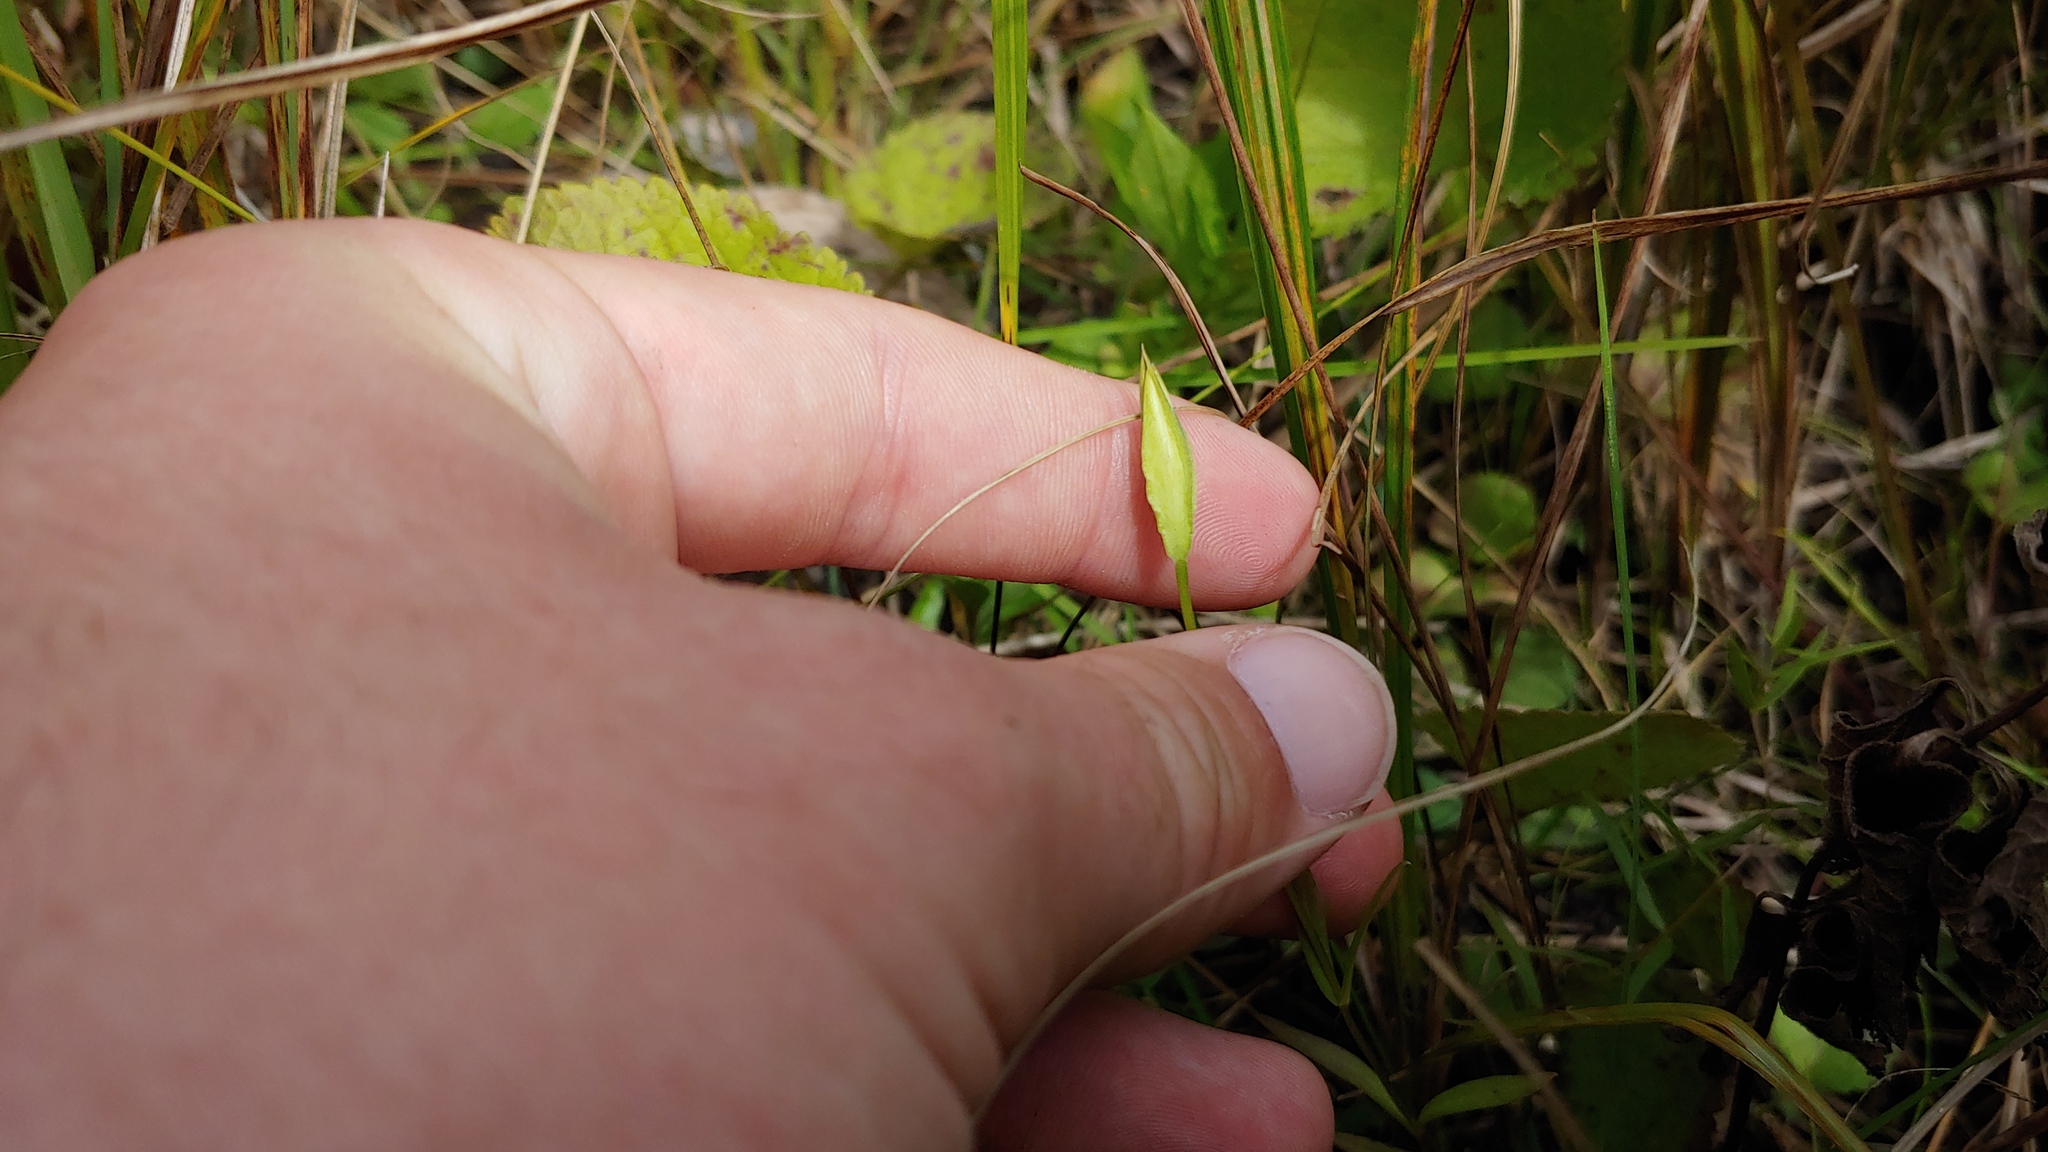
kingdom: Plantae
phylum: Tracheophyta
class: Magnoliopsida
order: Gentianales
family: Gentianaceae
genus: Gentianopsis
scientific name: Gentianopsis virgata
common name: Lesser fringed-gentian
